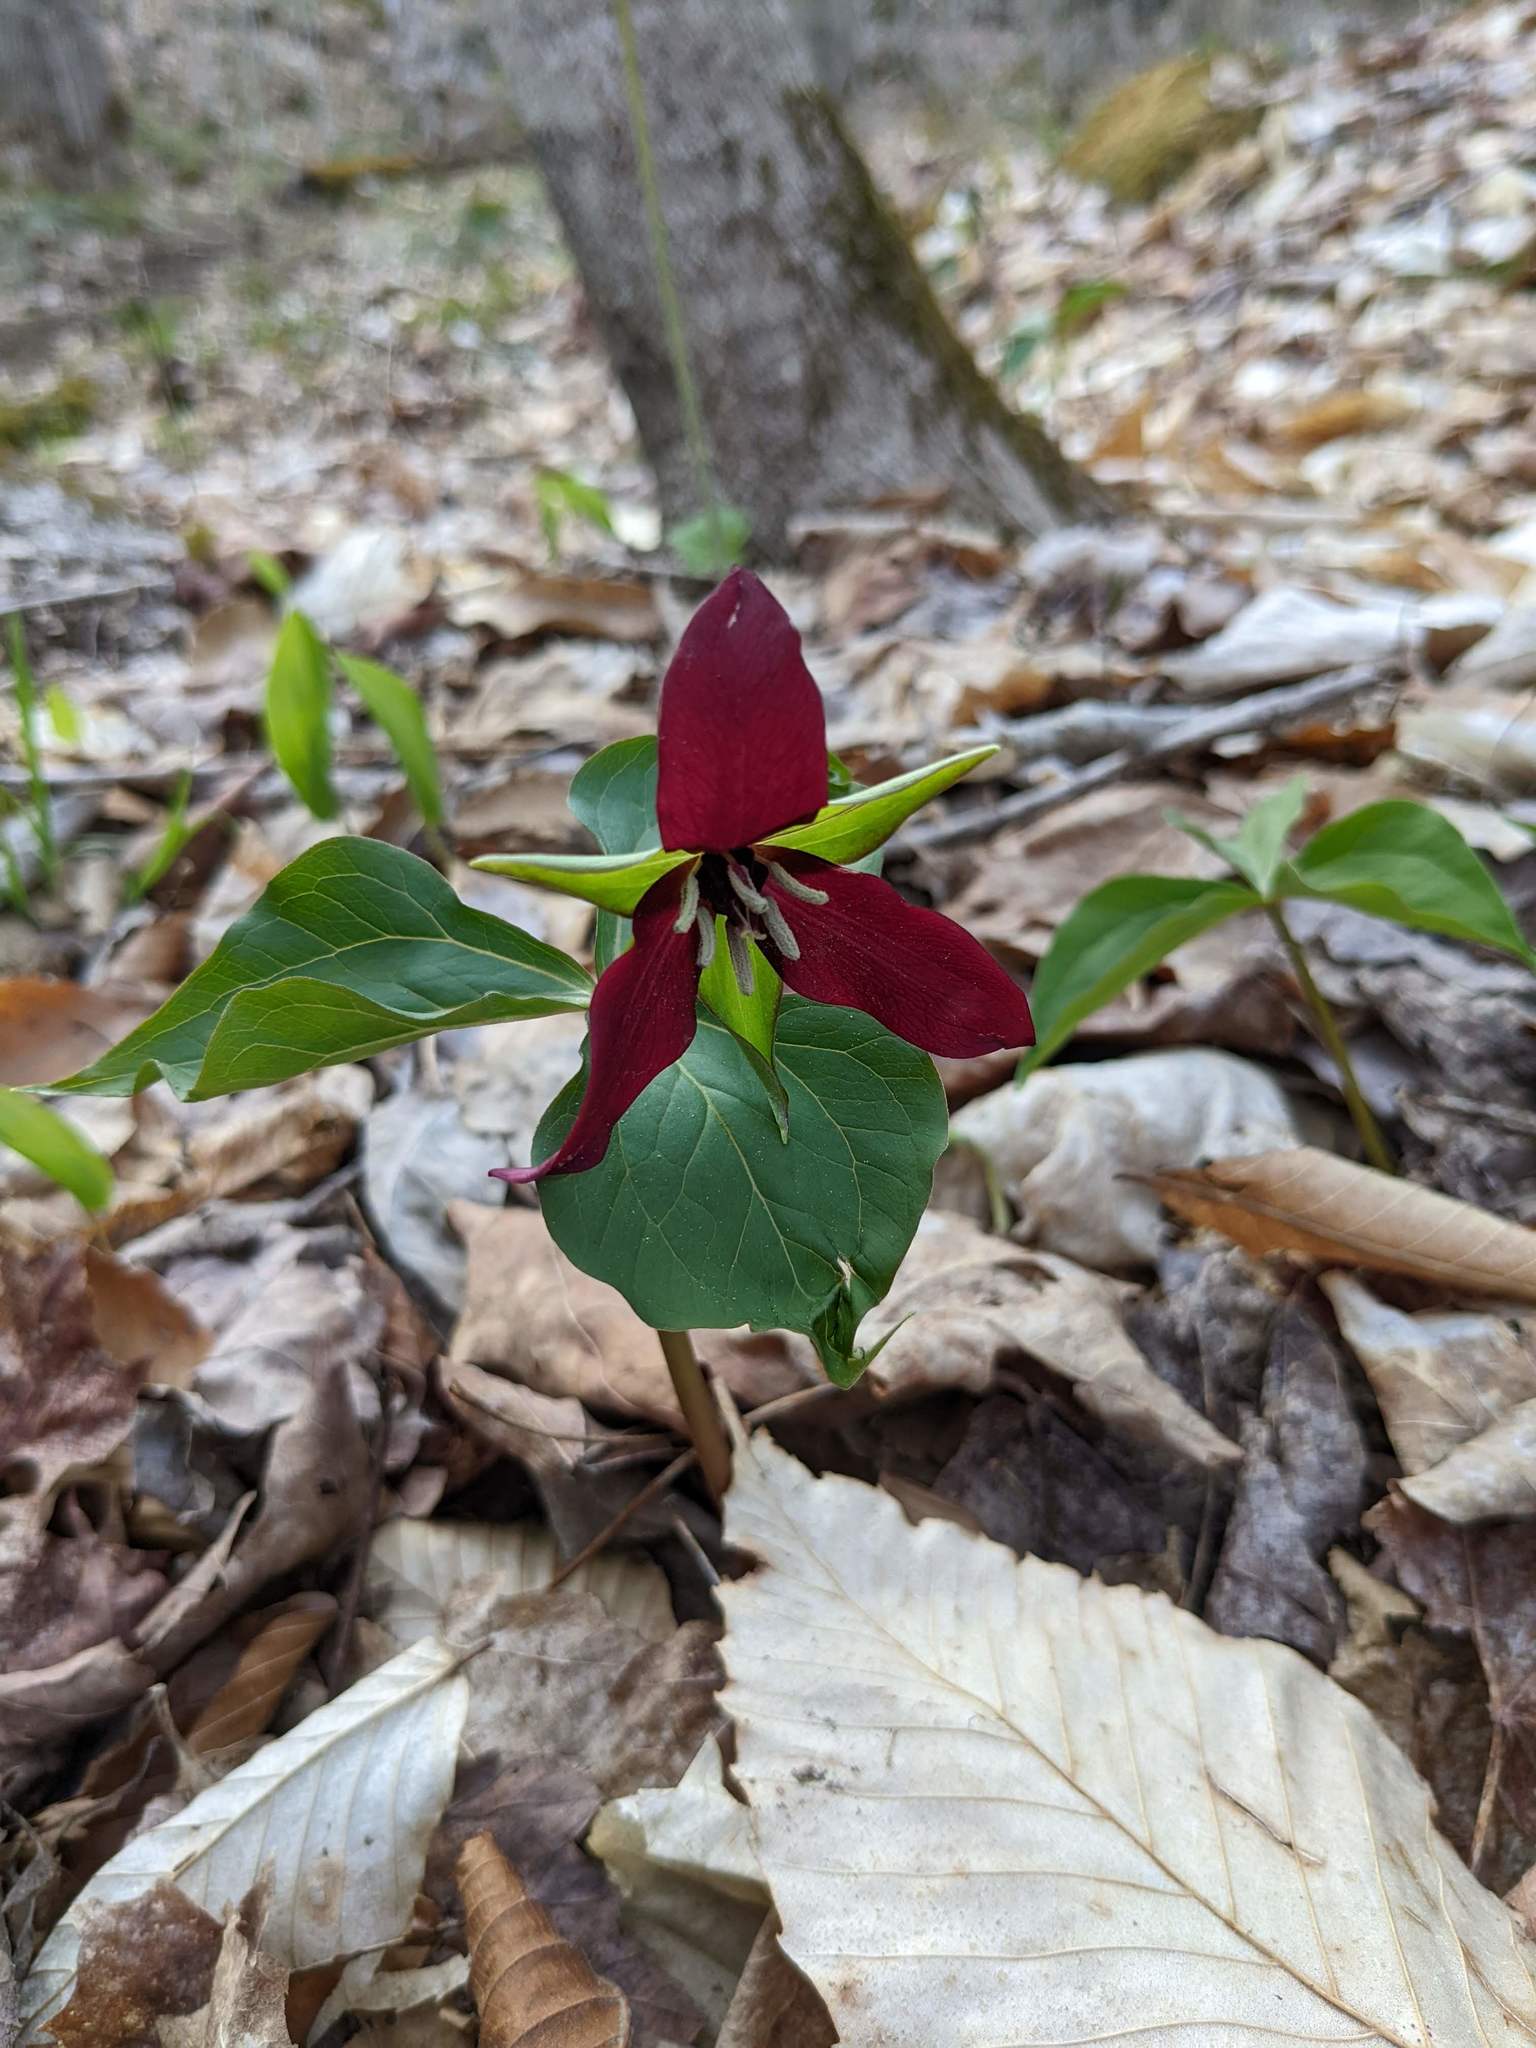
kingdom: Plantae
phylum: Tracheophyta
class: Liliopsida
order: Liliales
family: Melanthiaceae
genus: Trillium
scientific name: Trillium erectum
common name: Purple trillium
